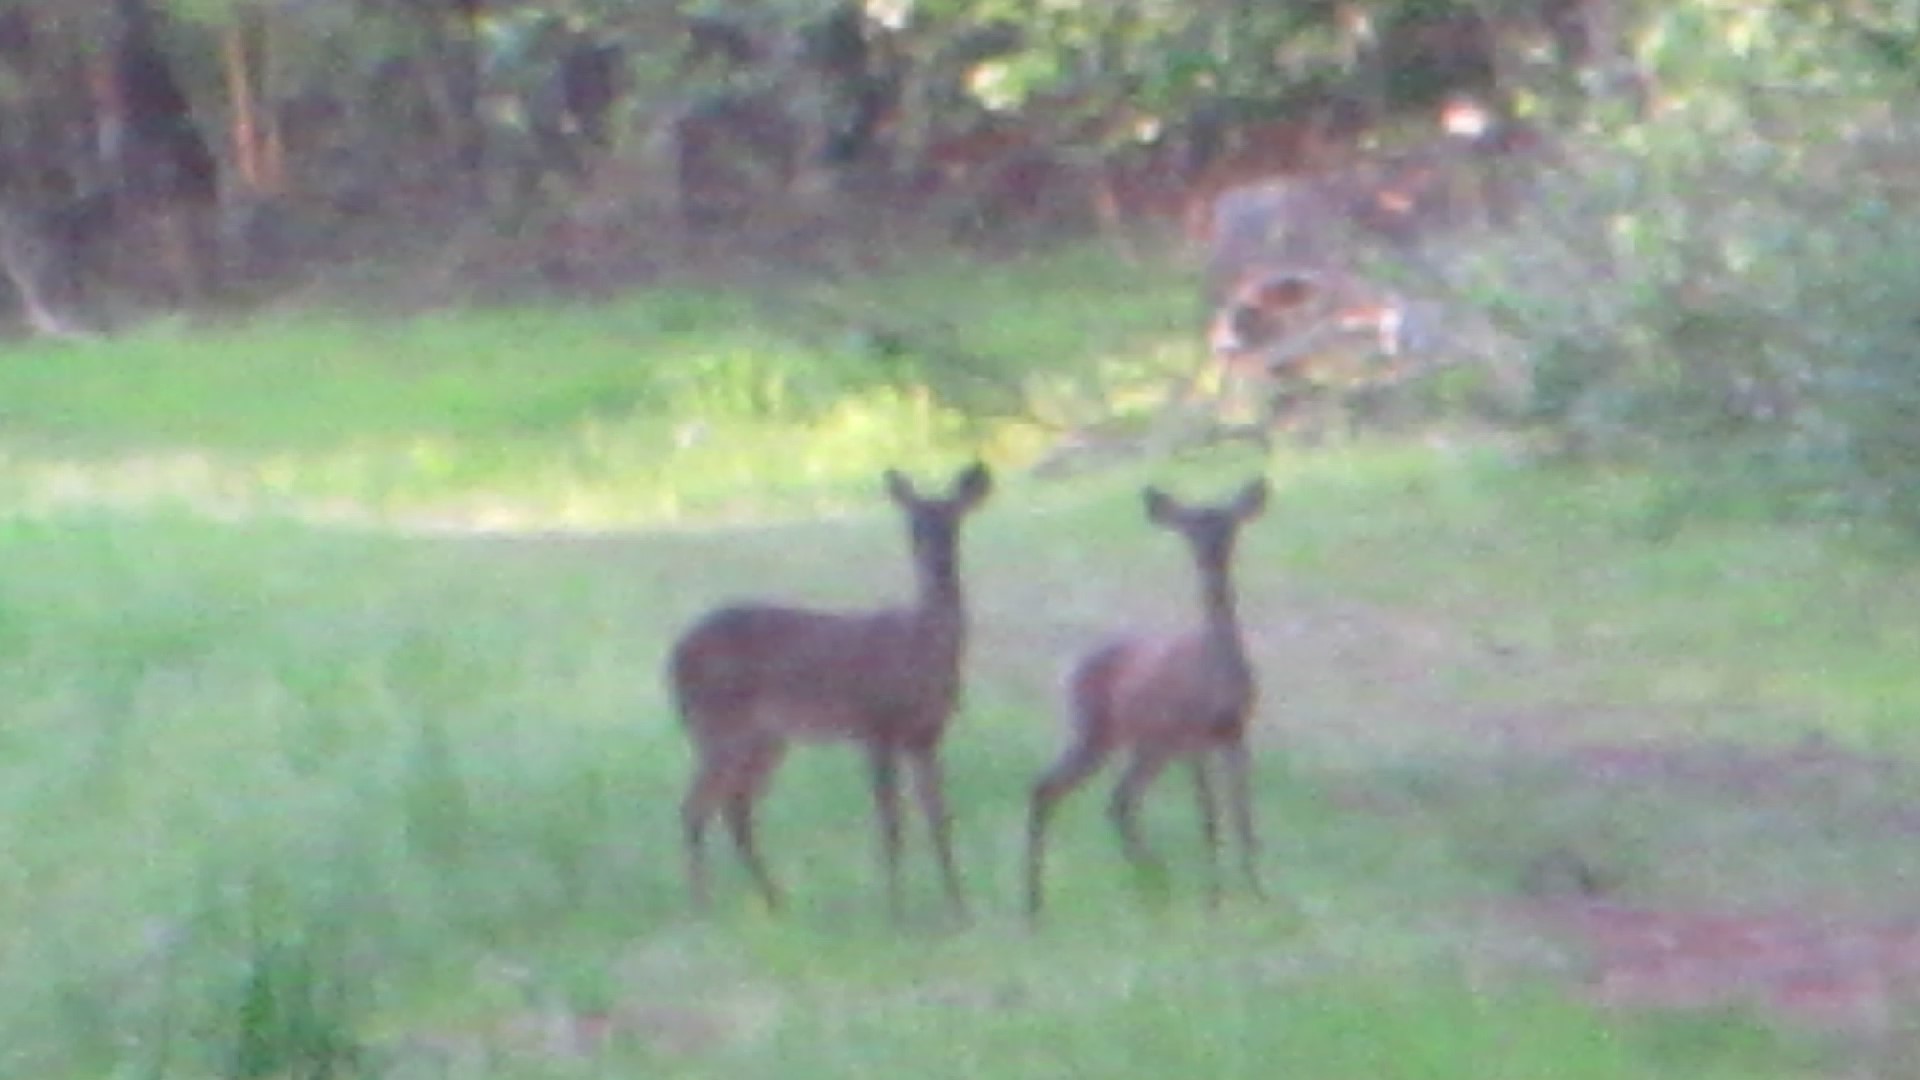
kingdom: Animalia
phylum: Chordata
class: Mammalia
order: Artiodactyla
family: Cervidae
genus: Odocoileus
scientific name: Odocoileus virginianus
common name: White-tailed deer
